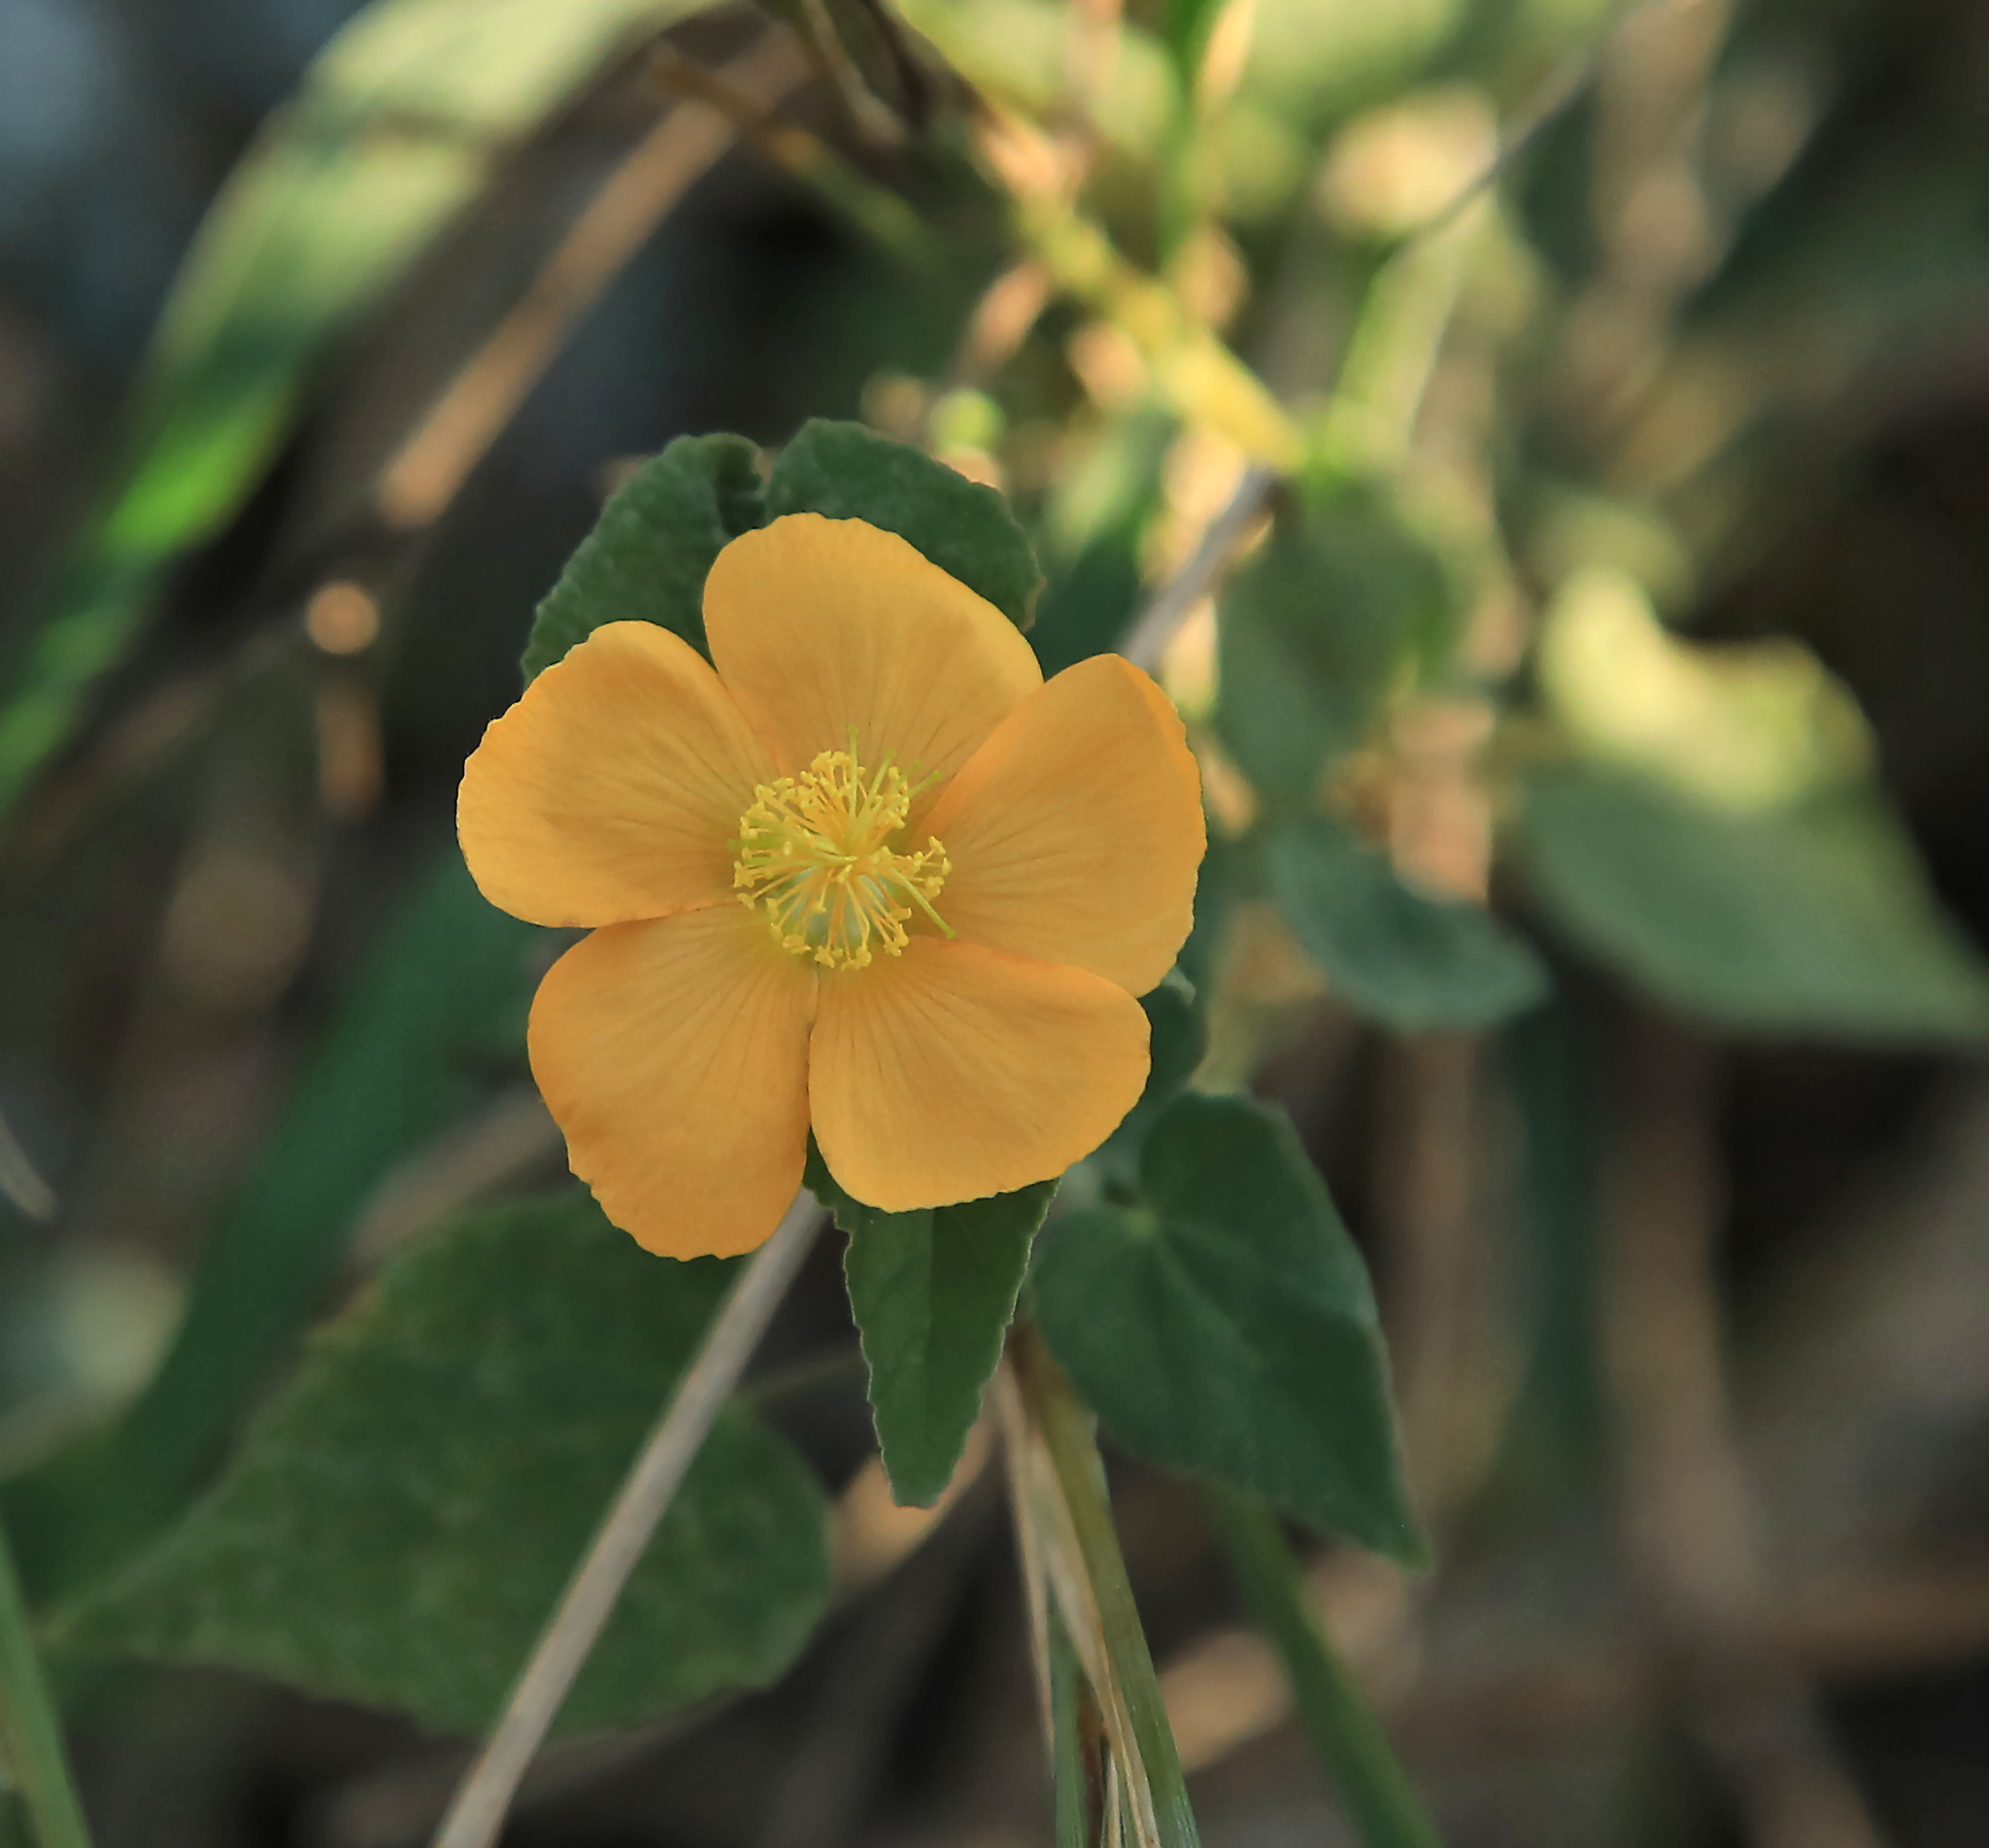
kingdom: Plantae
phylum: Tracheophyta
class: Magnoliopsida
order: Malvales
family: Malvaceae
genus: Abutilon
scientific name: Abutilon grandiflorum
